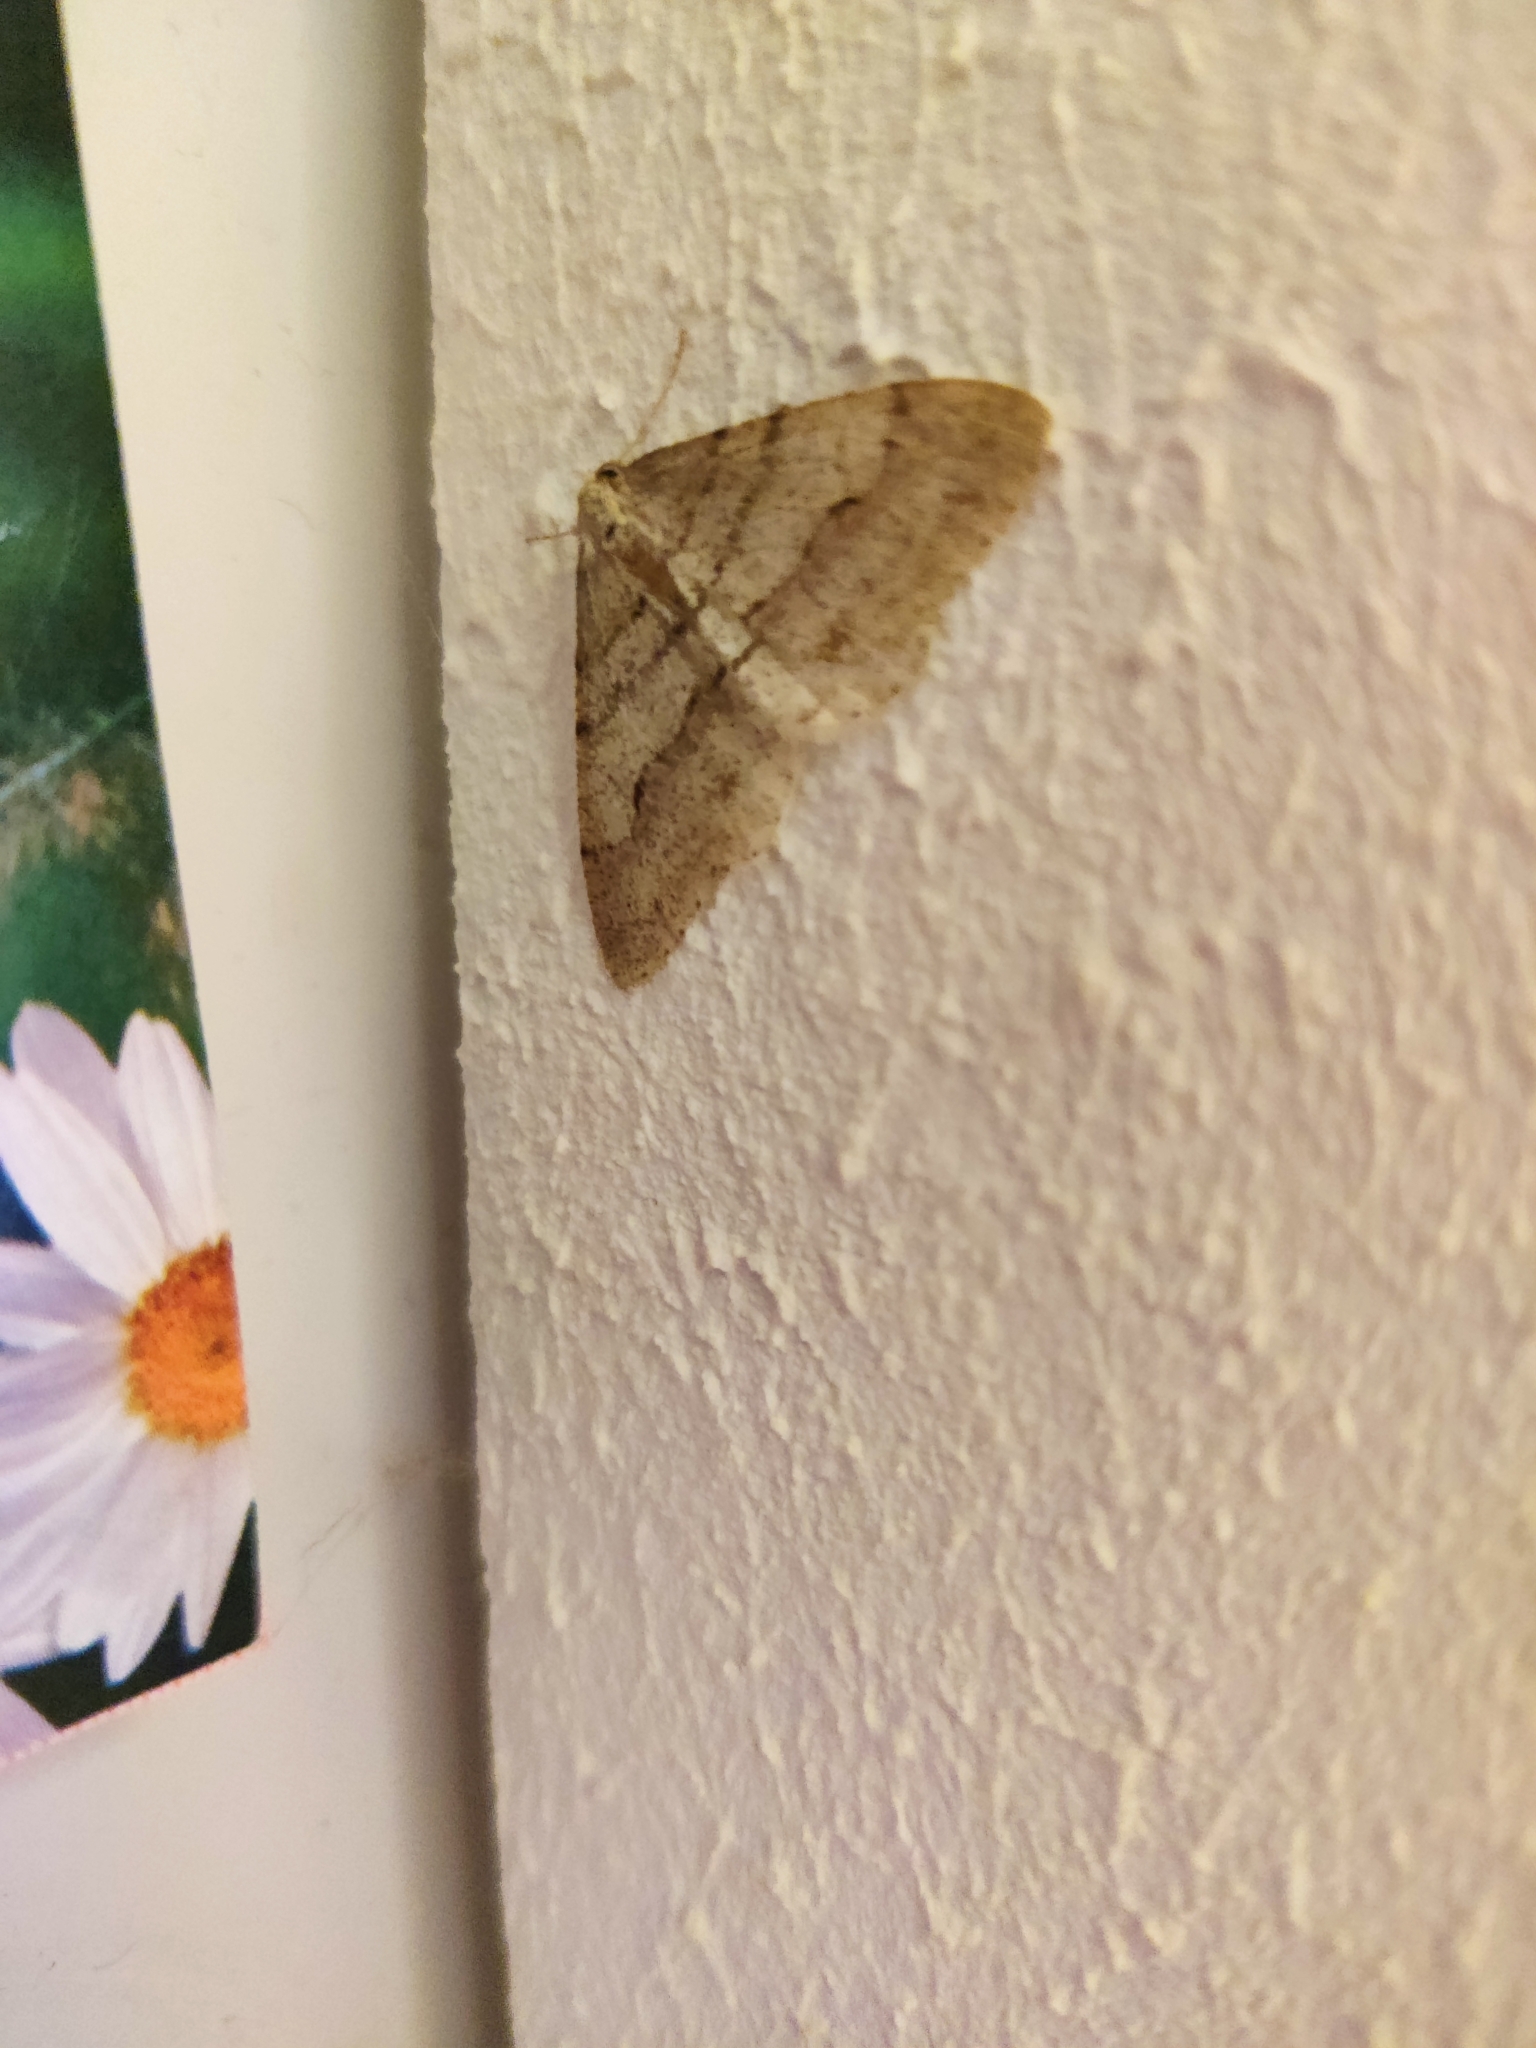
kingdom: Animalia
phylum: Arthropoda
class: Insecta
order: Lepidoptera
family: Geometridae
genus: Larerannis
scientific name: Larerannis orthogrammaria
